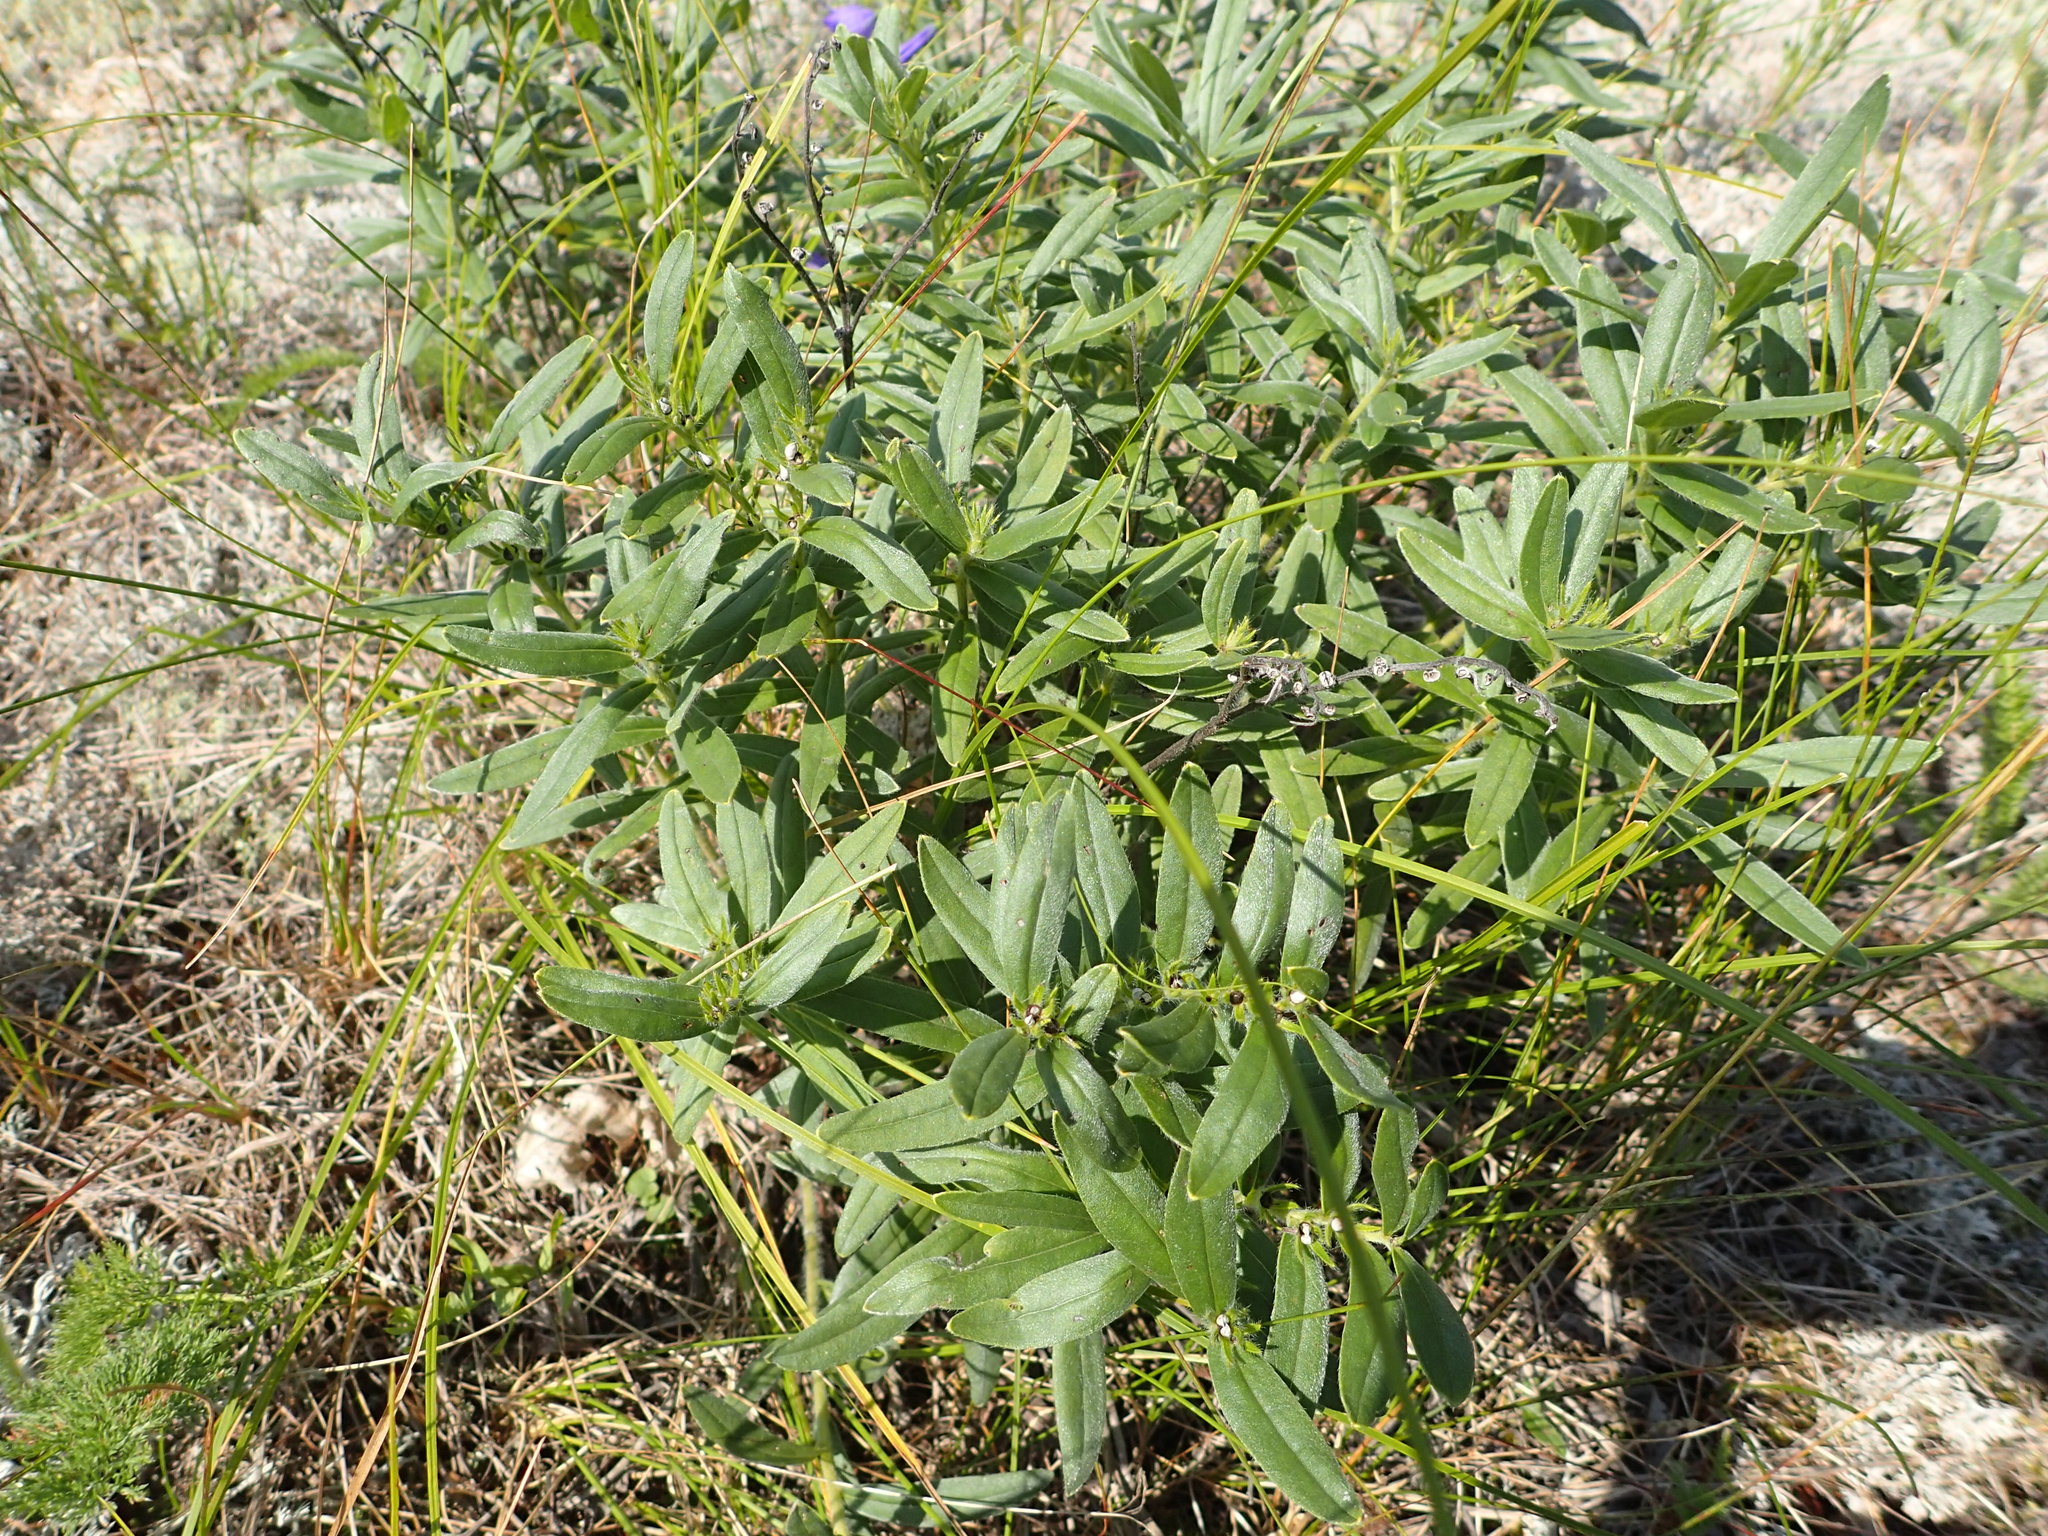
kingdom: Plantae
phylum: Tracheophyta
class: Magnoliopsida
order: Boraginales
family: Boraginaceae
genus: Lithospermum
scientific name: Lithospermum canescens
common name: Hoary puccoon
